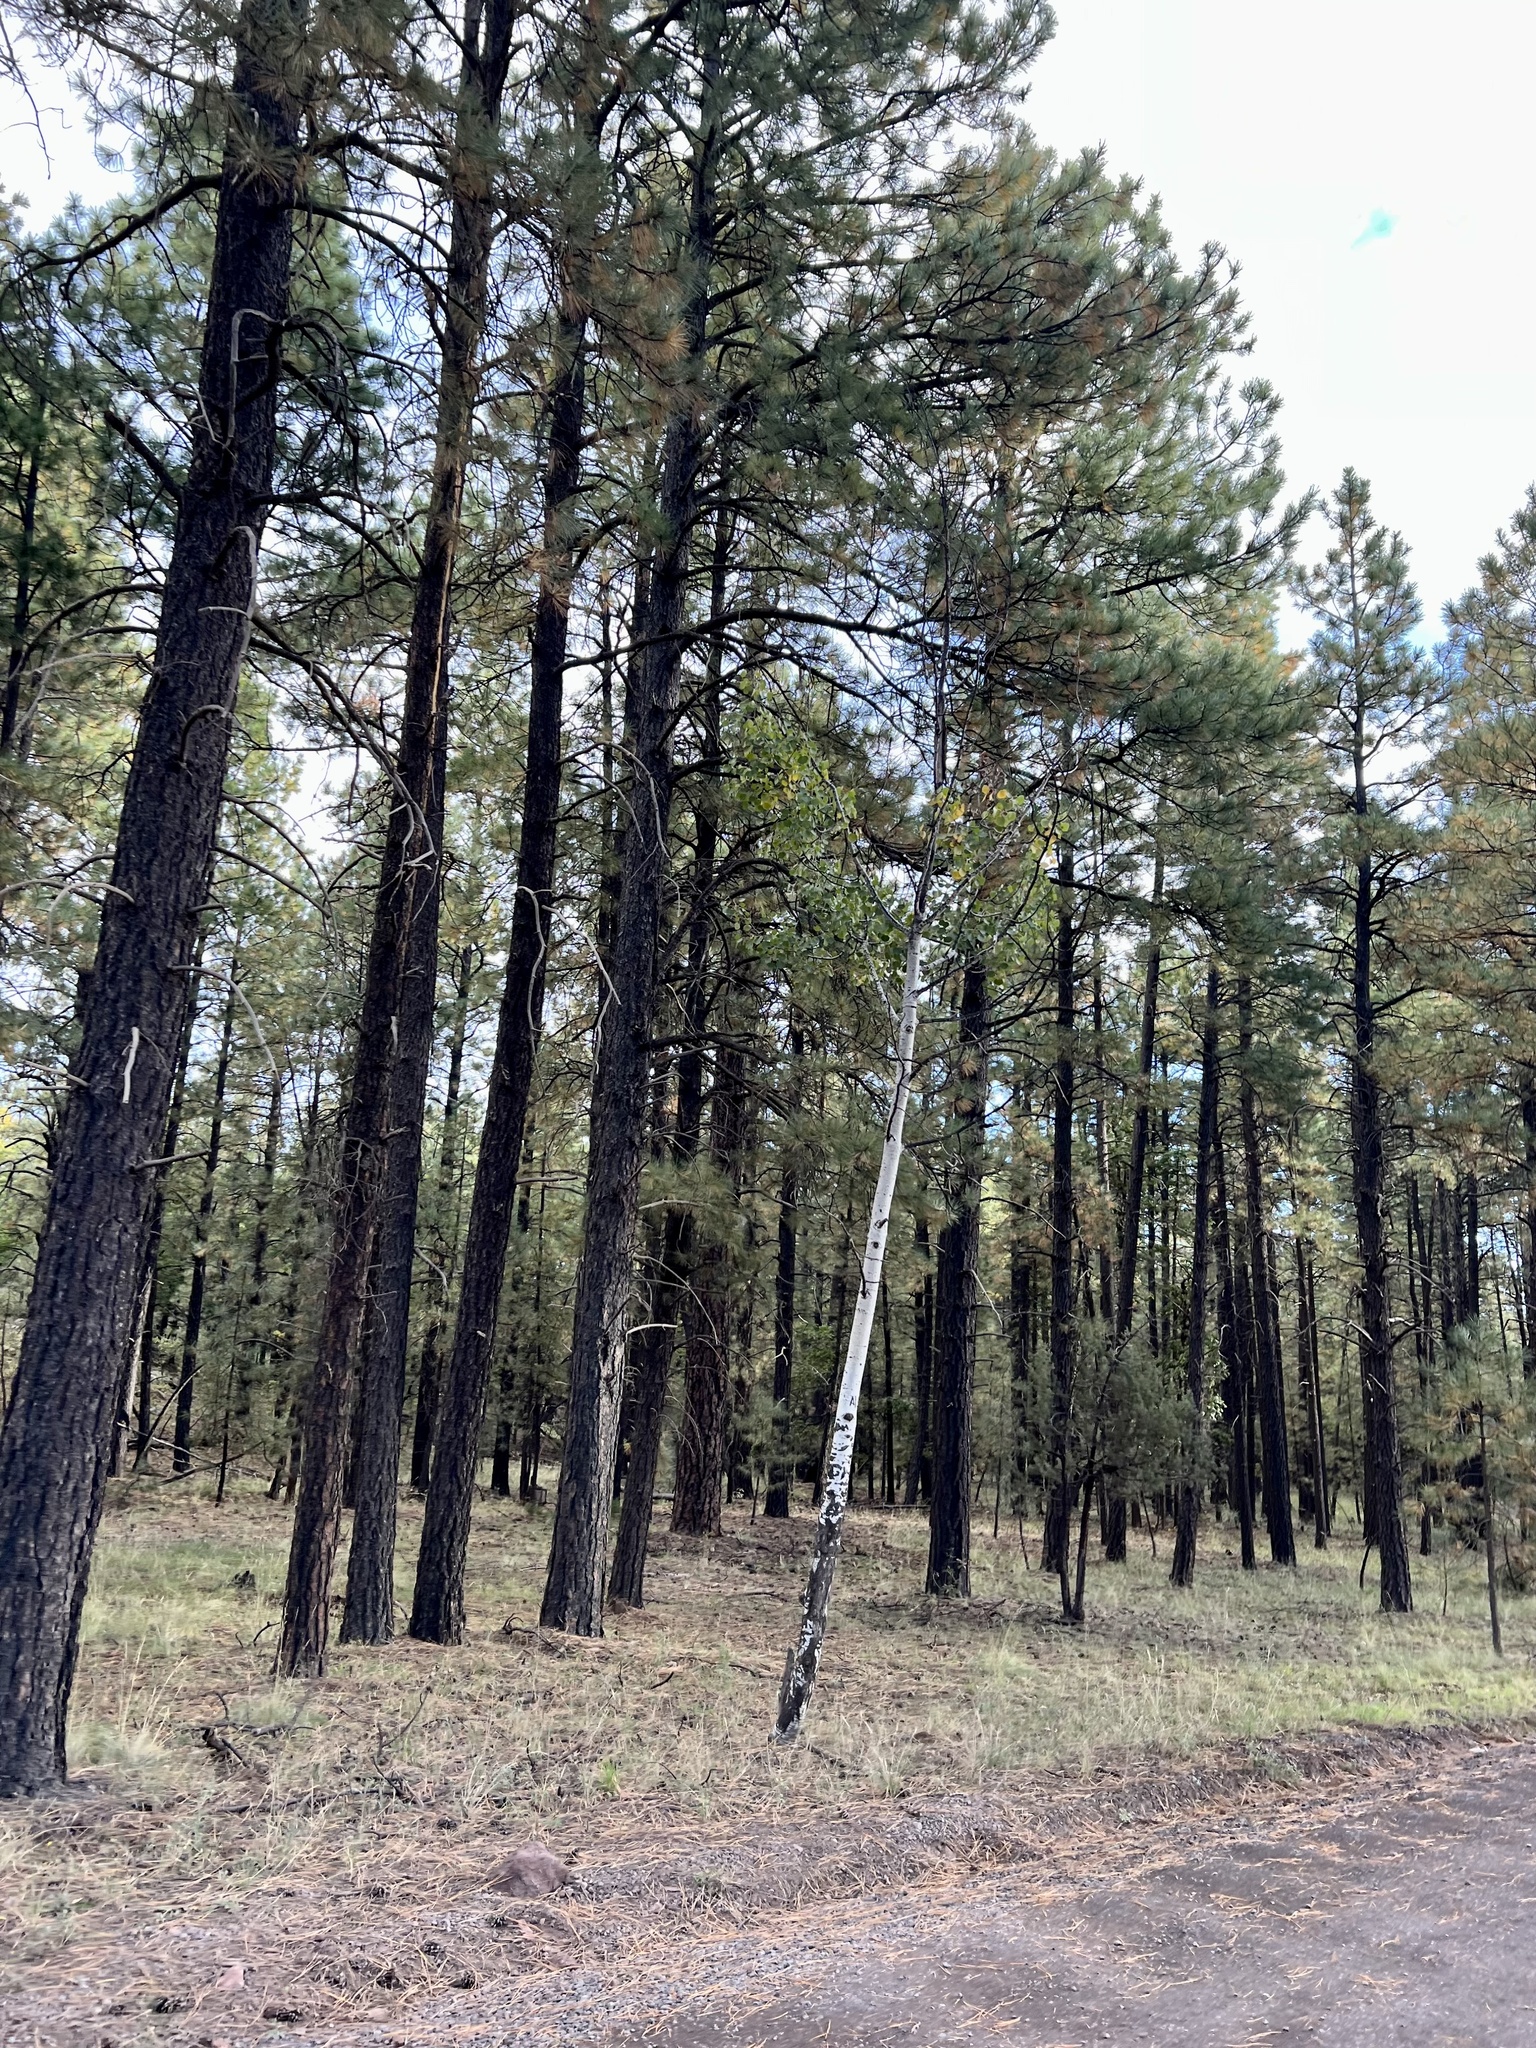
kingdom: Plantae
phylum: Tracheophyta
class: Magnoliopsida
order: Malpighiales
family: Salicaceae
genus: Populus
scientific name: Populus tremuloides
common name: Quaking aspen
